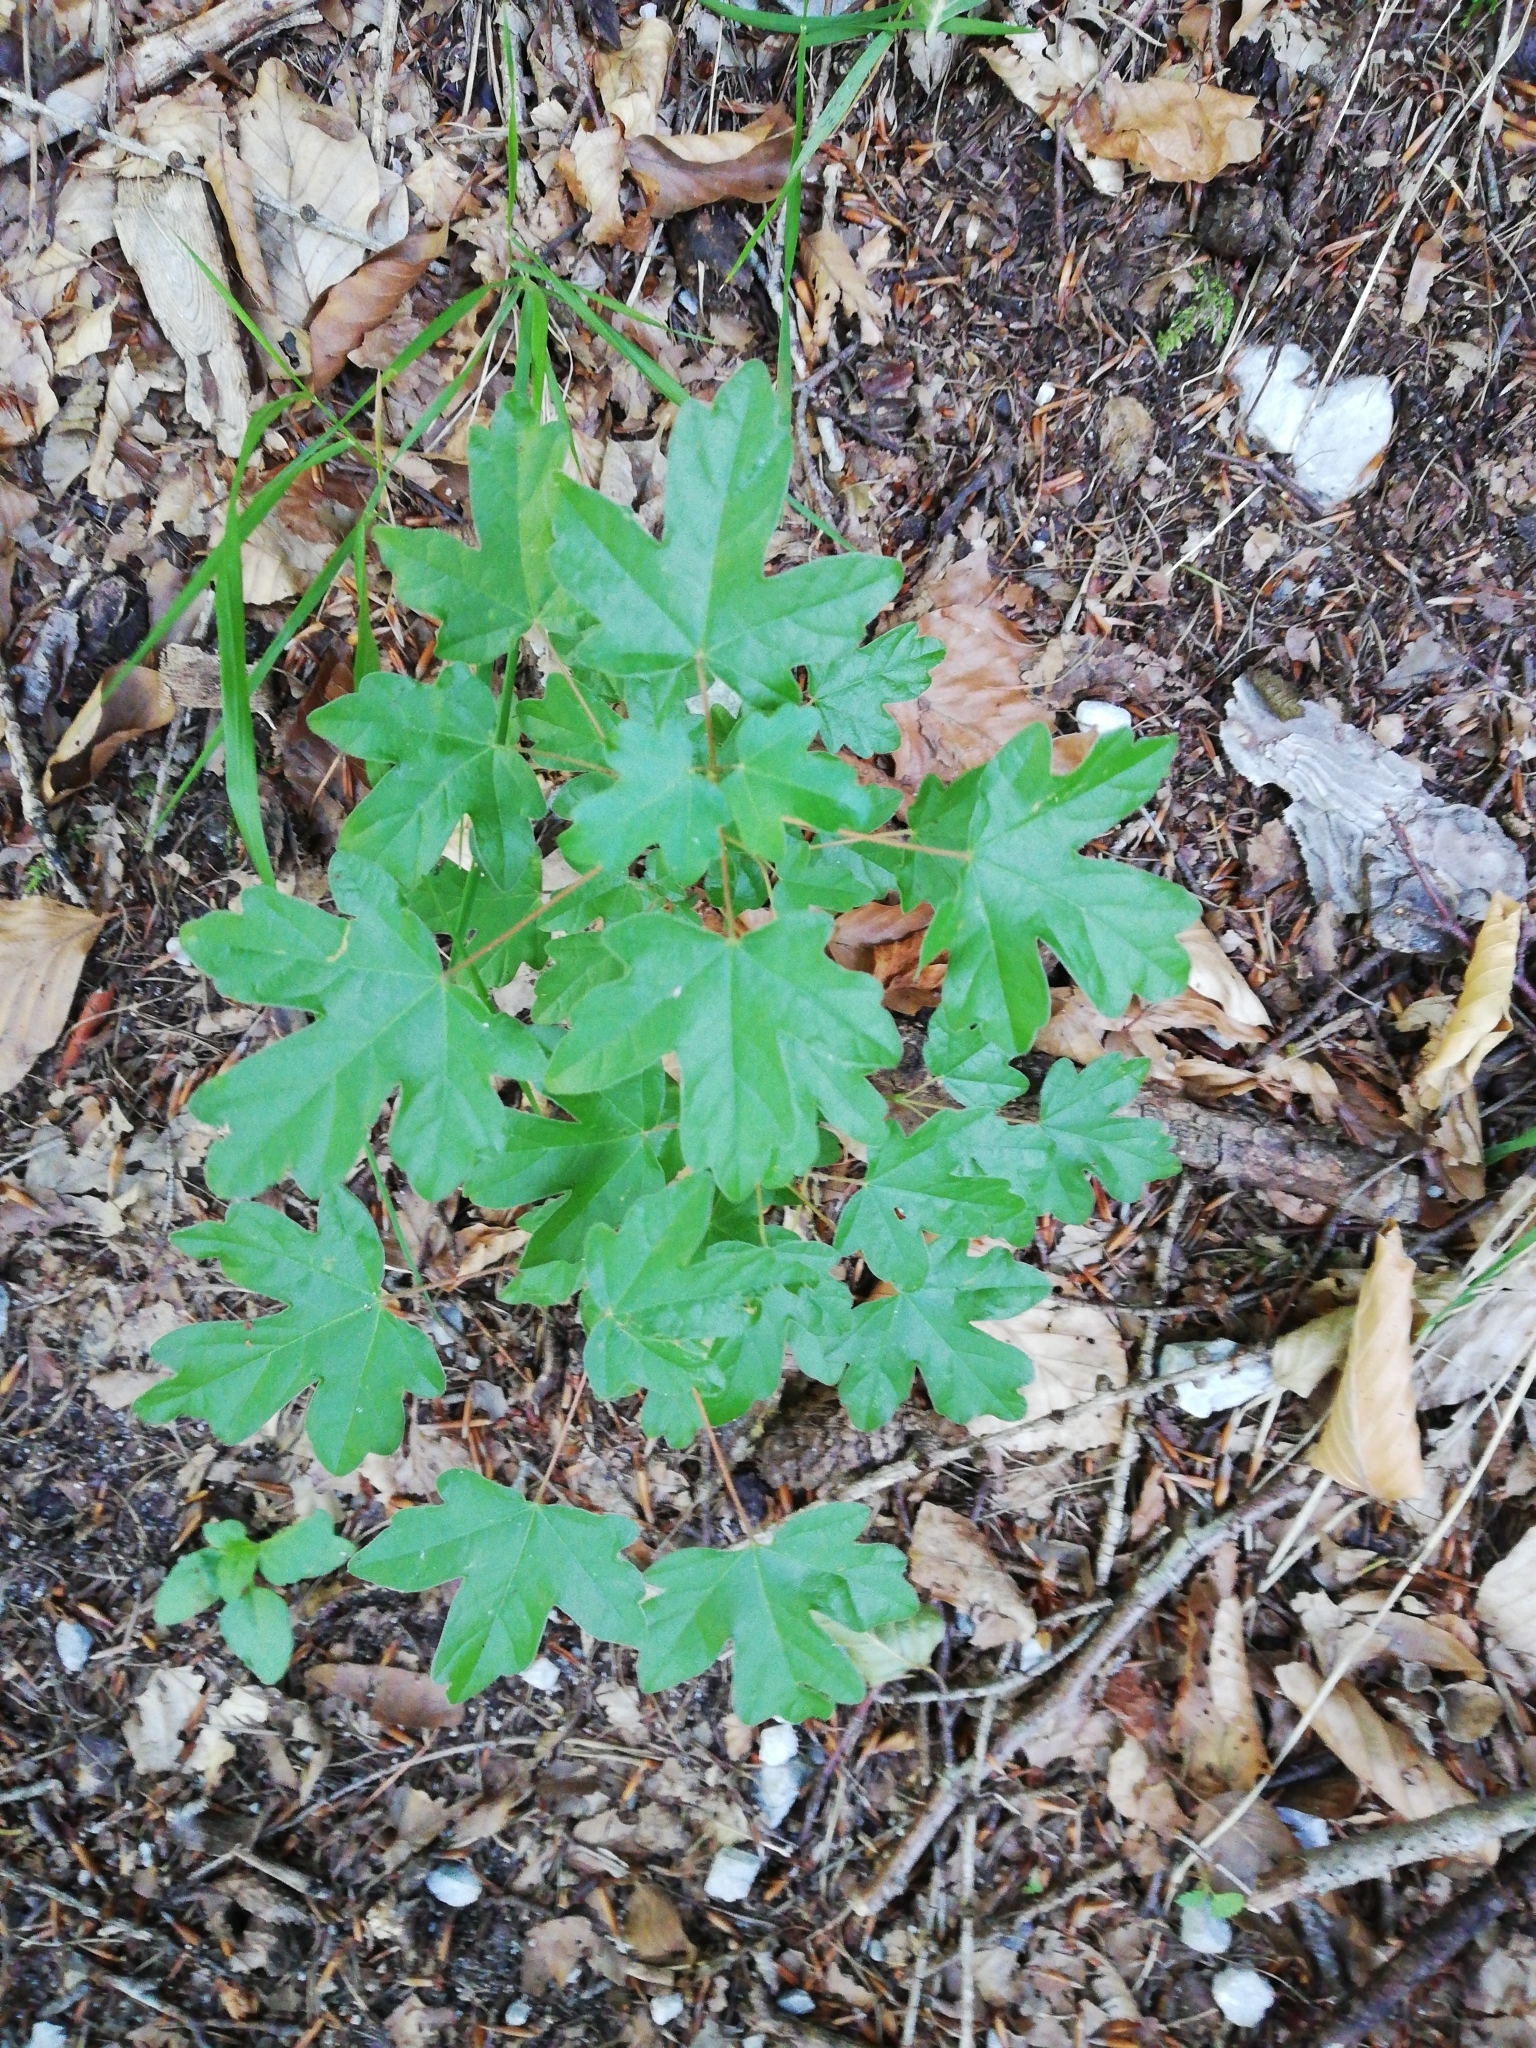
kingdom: Plantae
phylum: Tracheophyta
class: Magnoliopsida
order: Sapindales
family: Sapindaceae
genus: Acer
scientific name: Acer campestre
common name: Field maple
